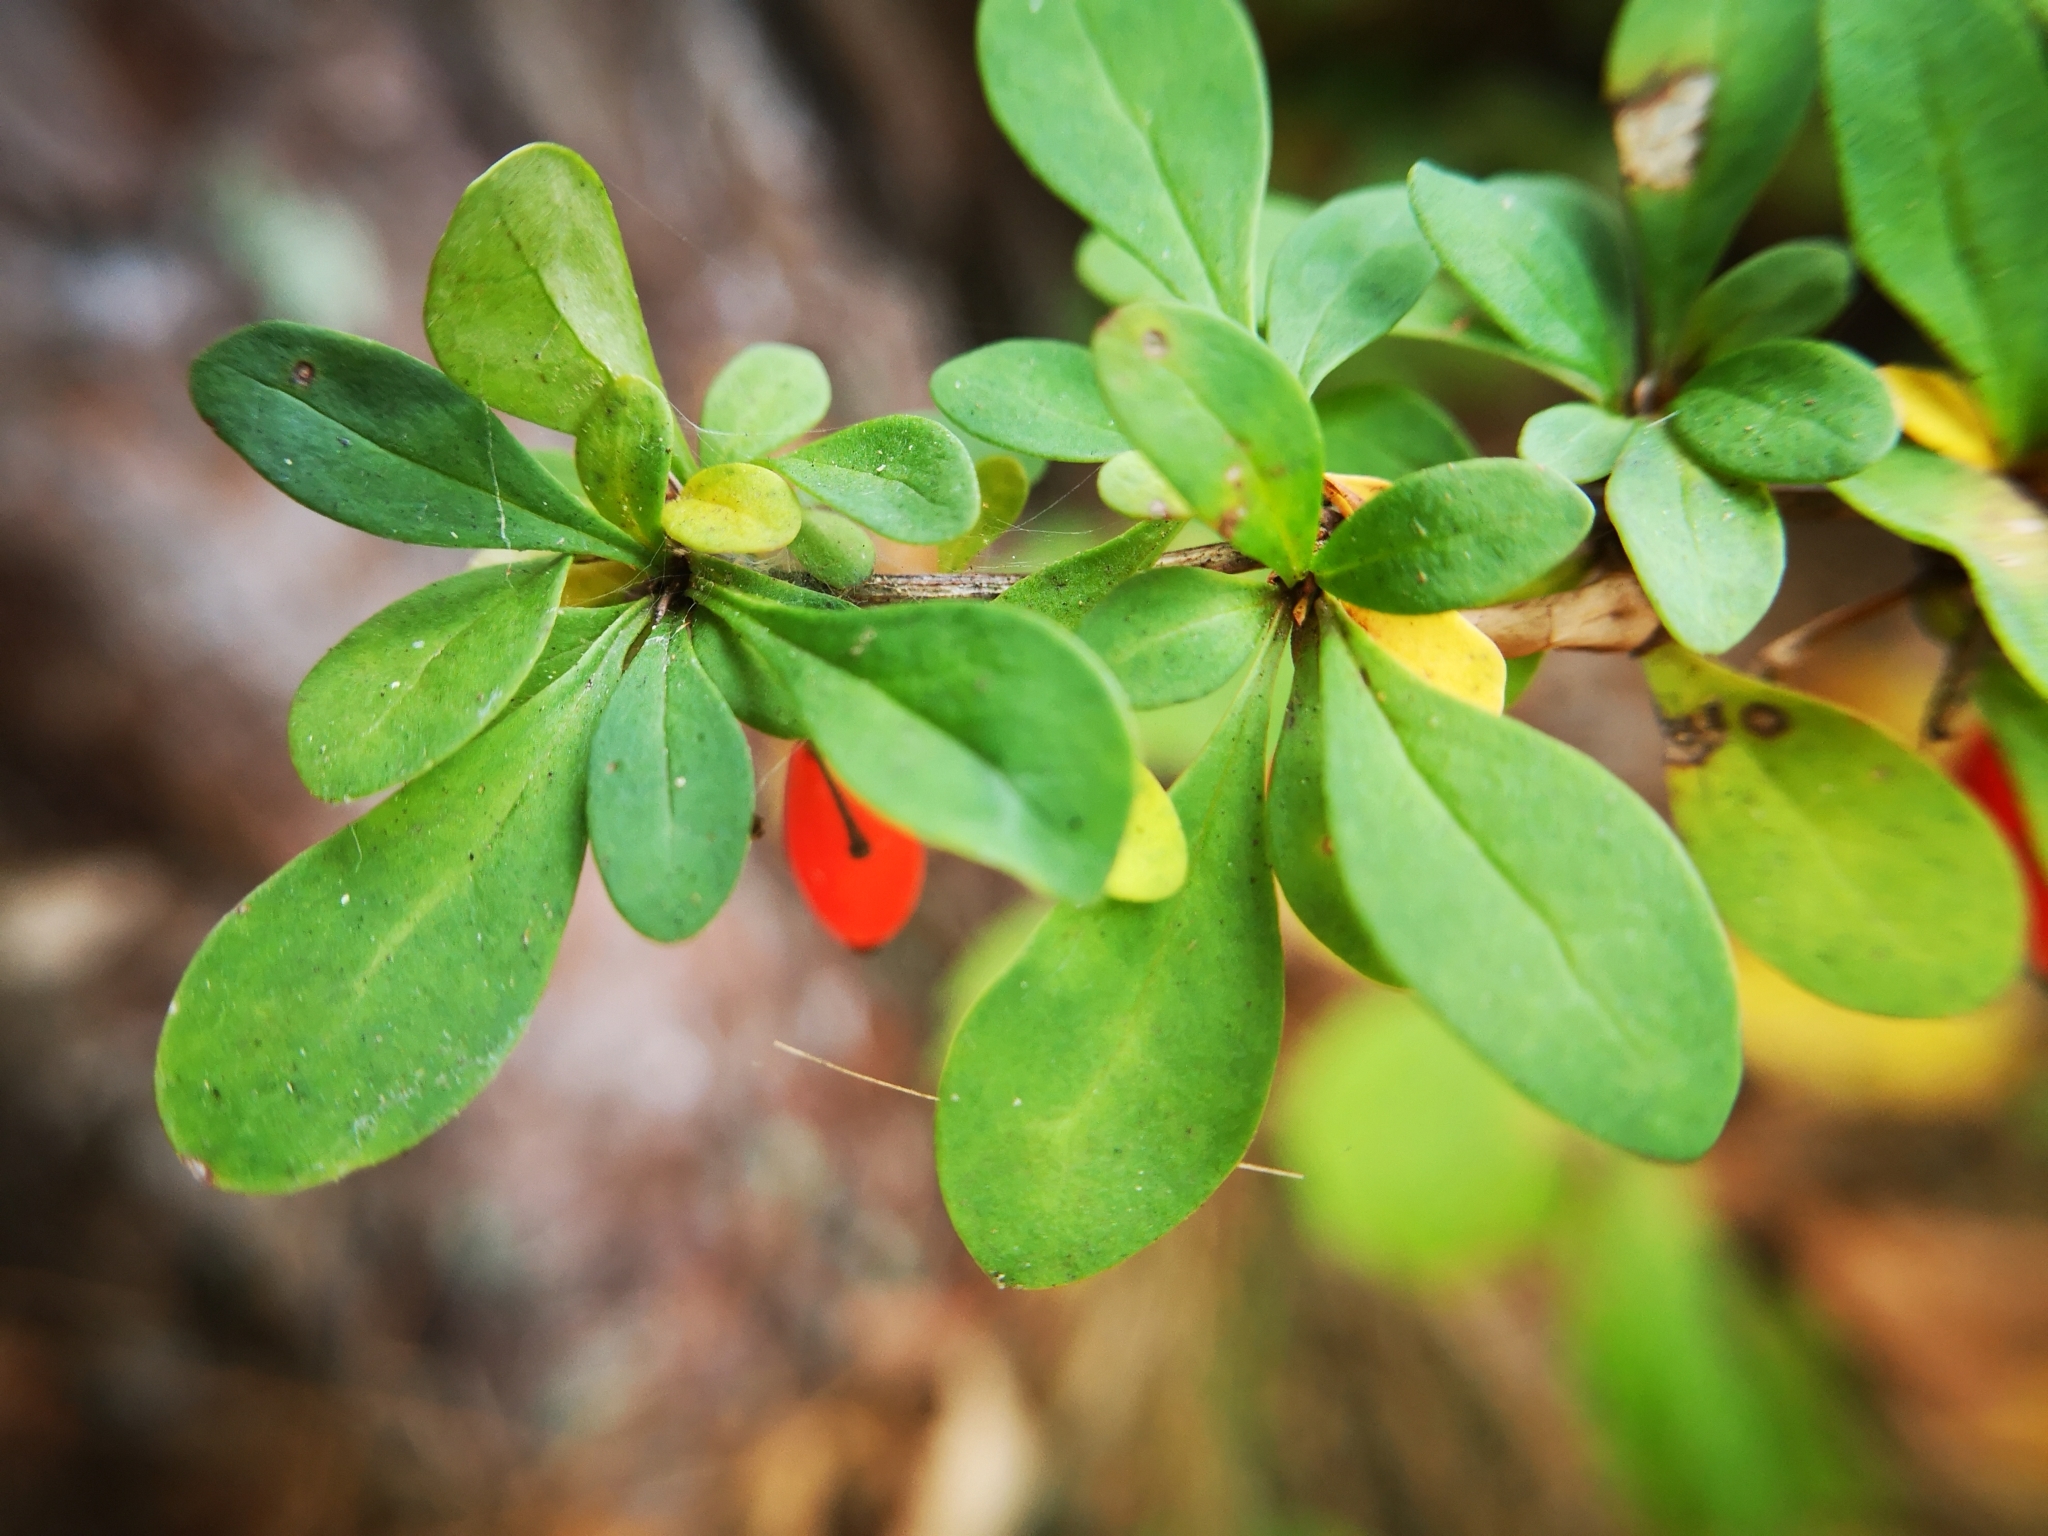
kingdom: Plantae
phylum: Tracheophyta
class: Magnoliopsida
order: Ranunculales
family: Berberidaceae
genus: Berberis
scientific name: Berberis thunbergii
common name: Japanese barberry
